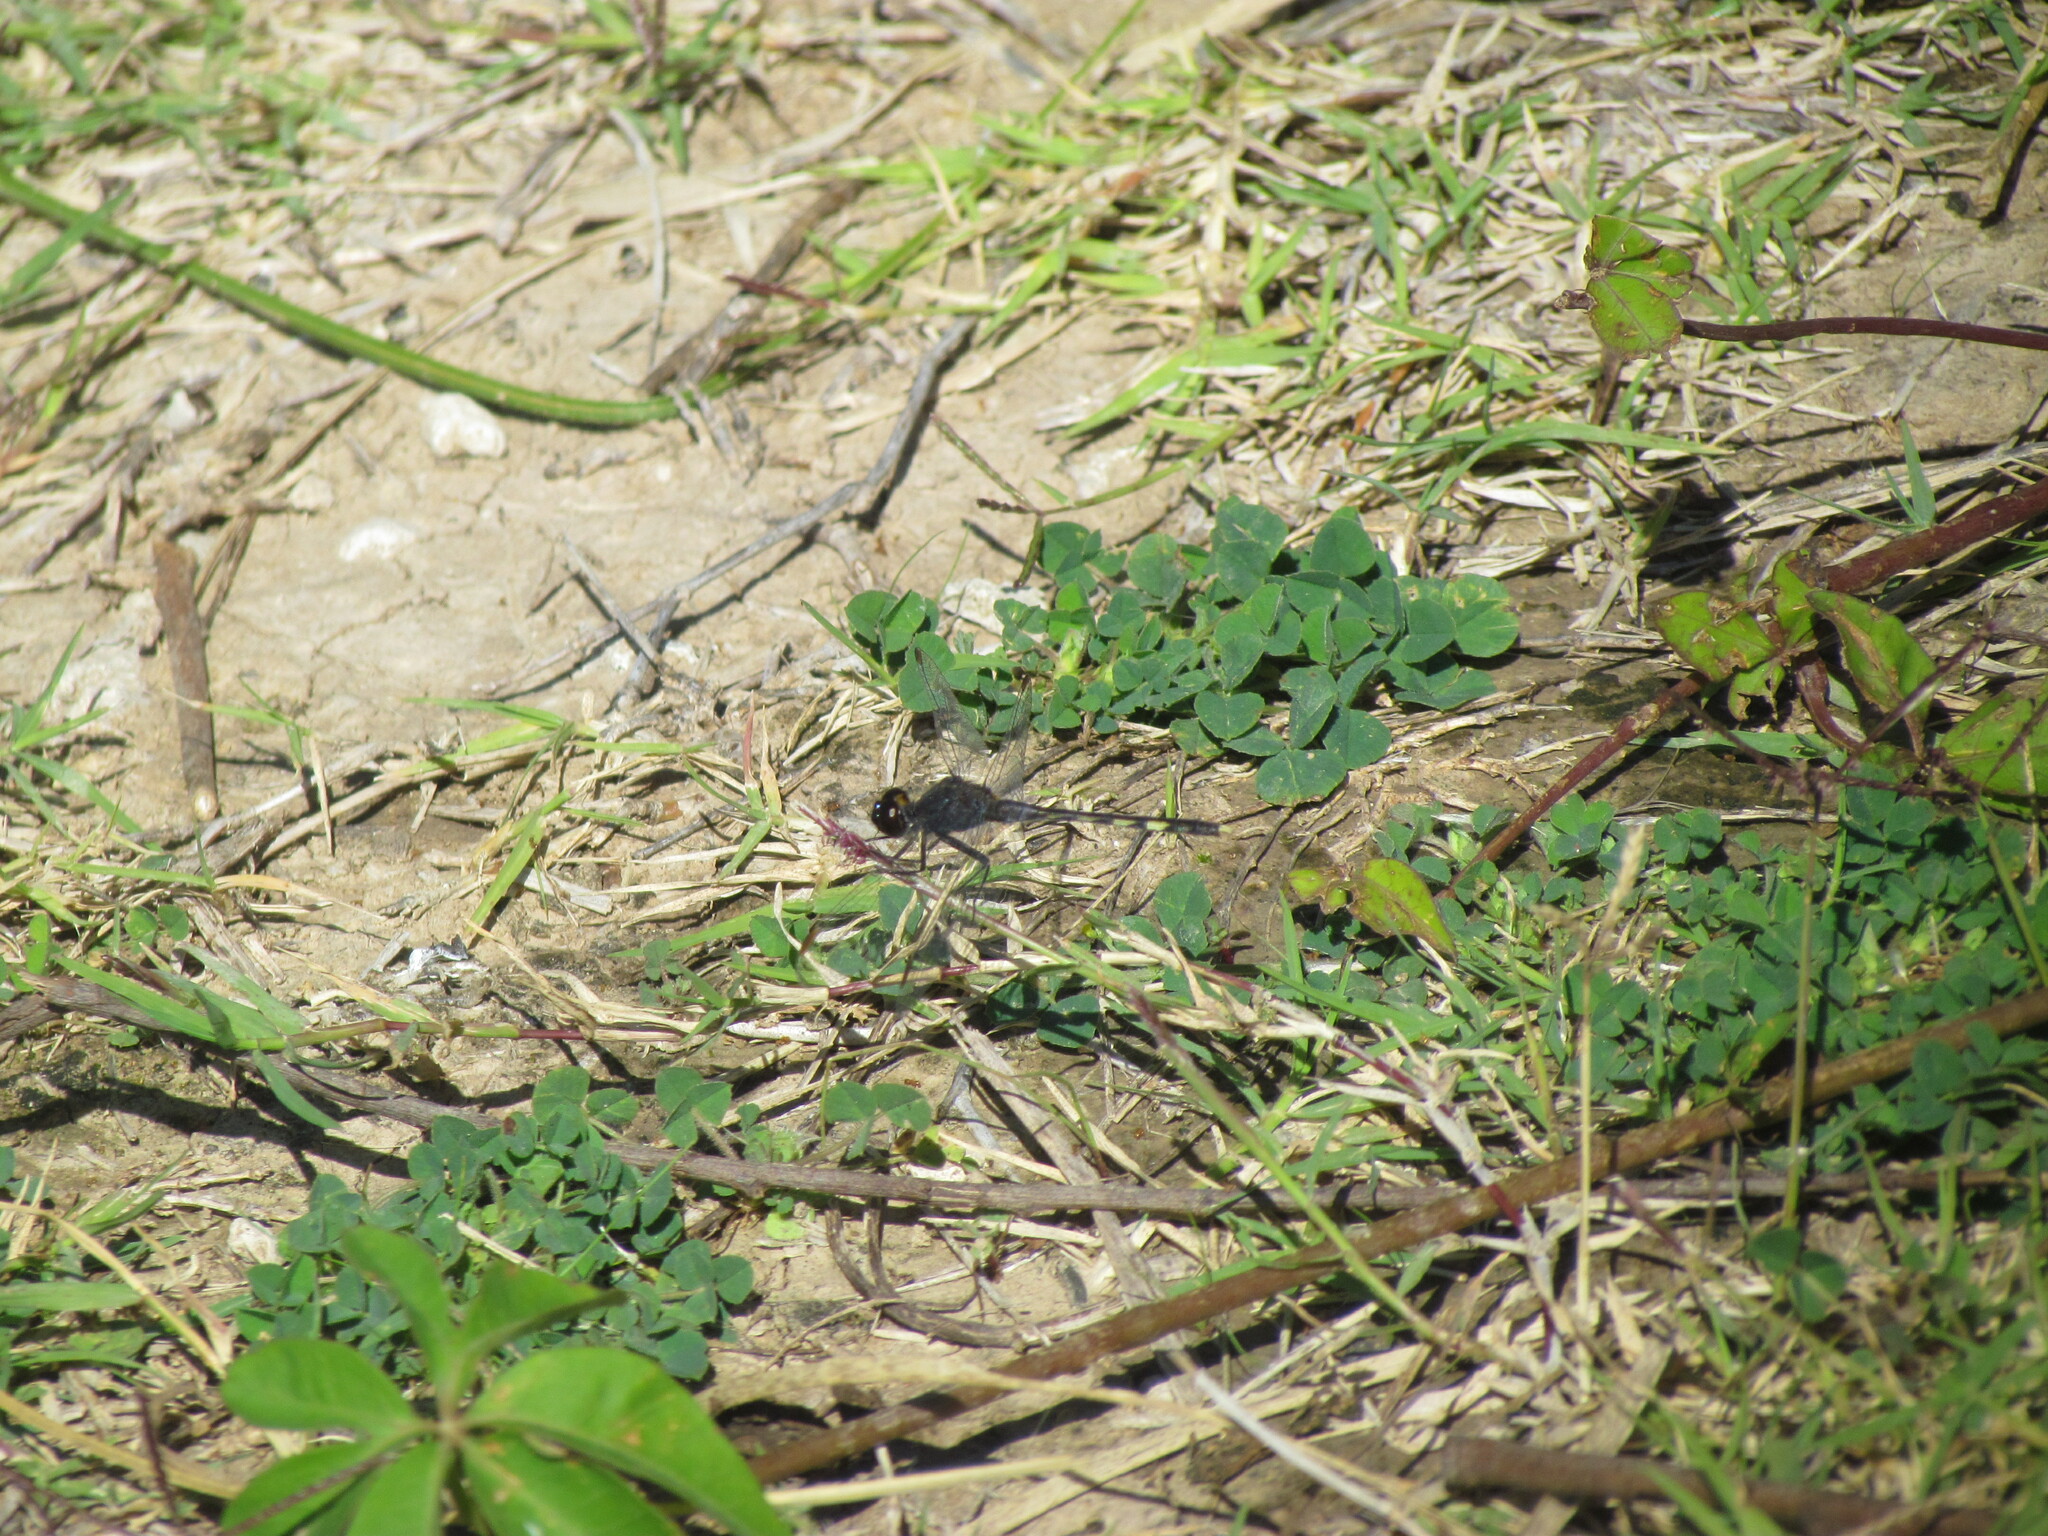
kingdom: Animalia
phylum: Arthropoda
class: Insecta
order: Odonata
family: Libellulidae
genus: Erythrodiplax
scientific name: Erythrodiplax nigricans
